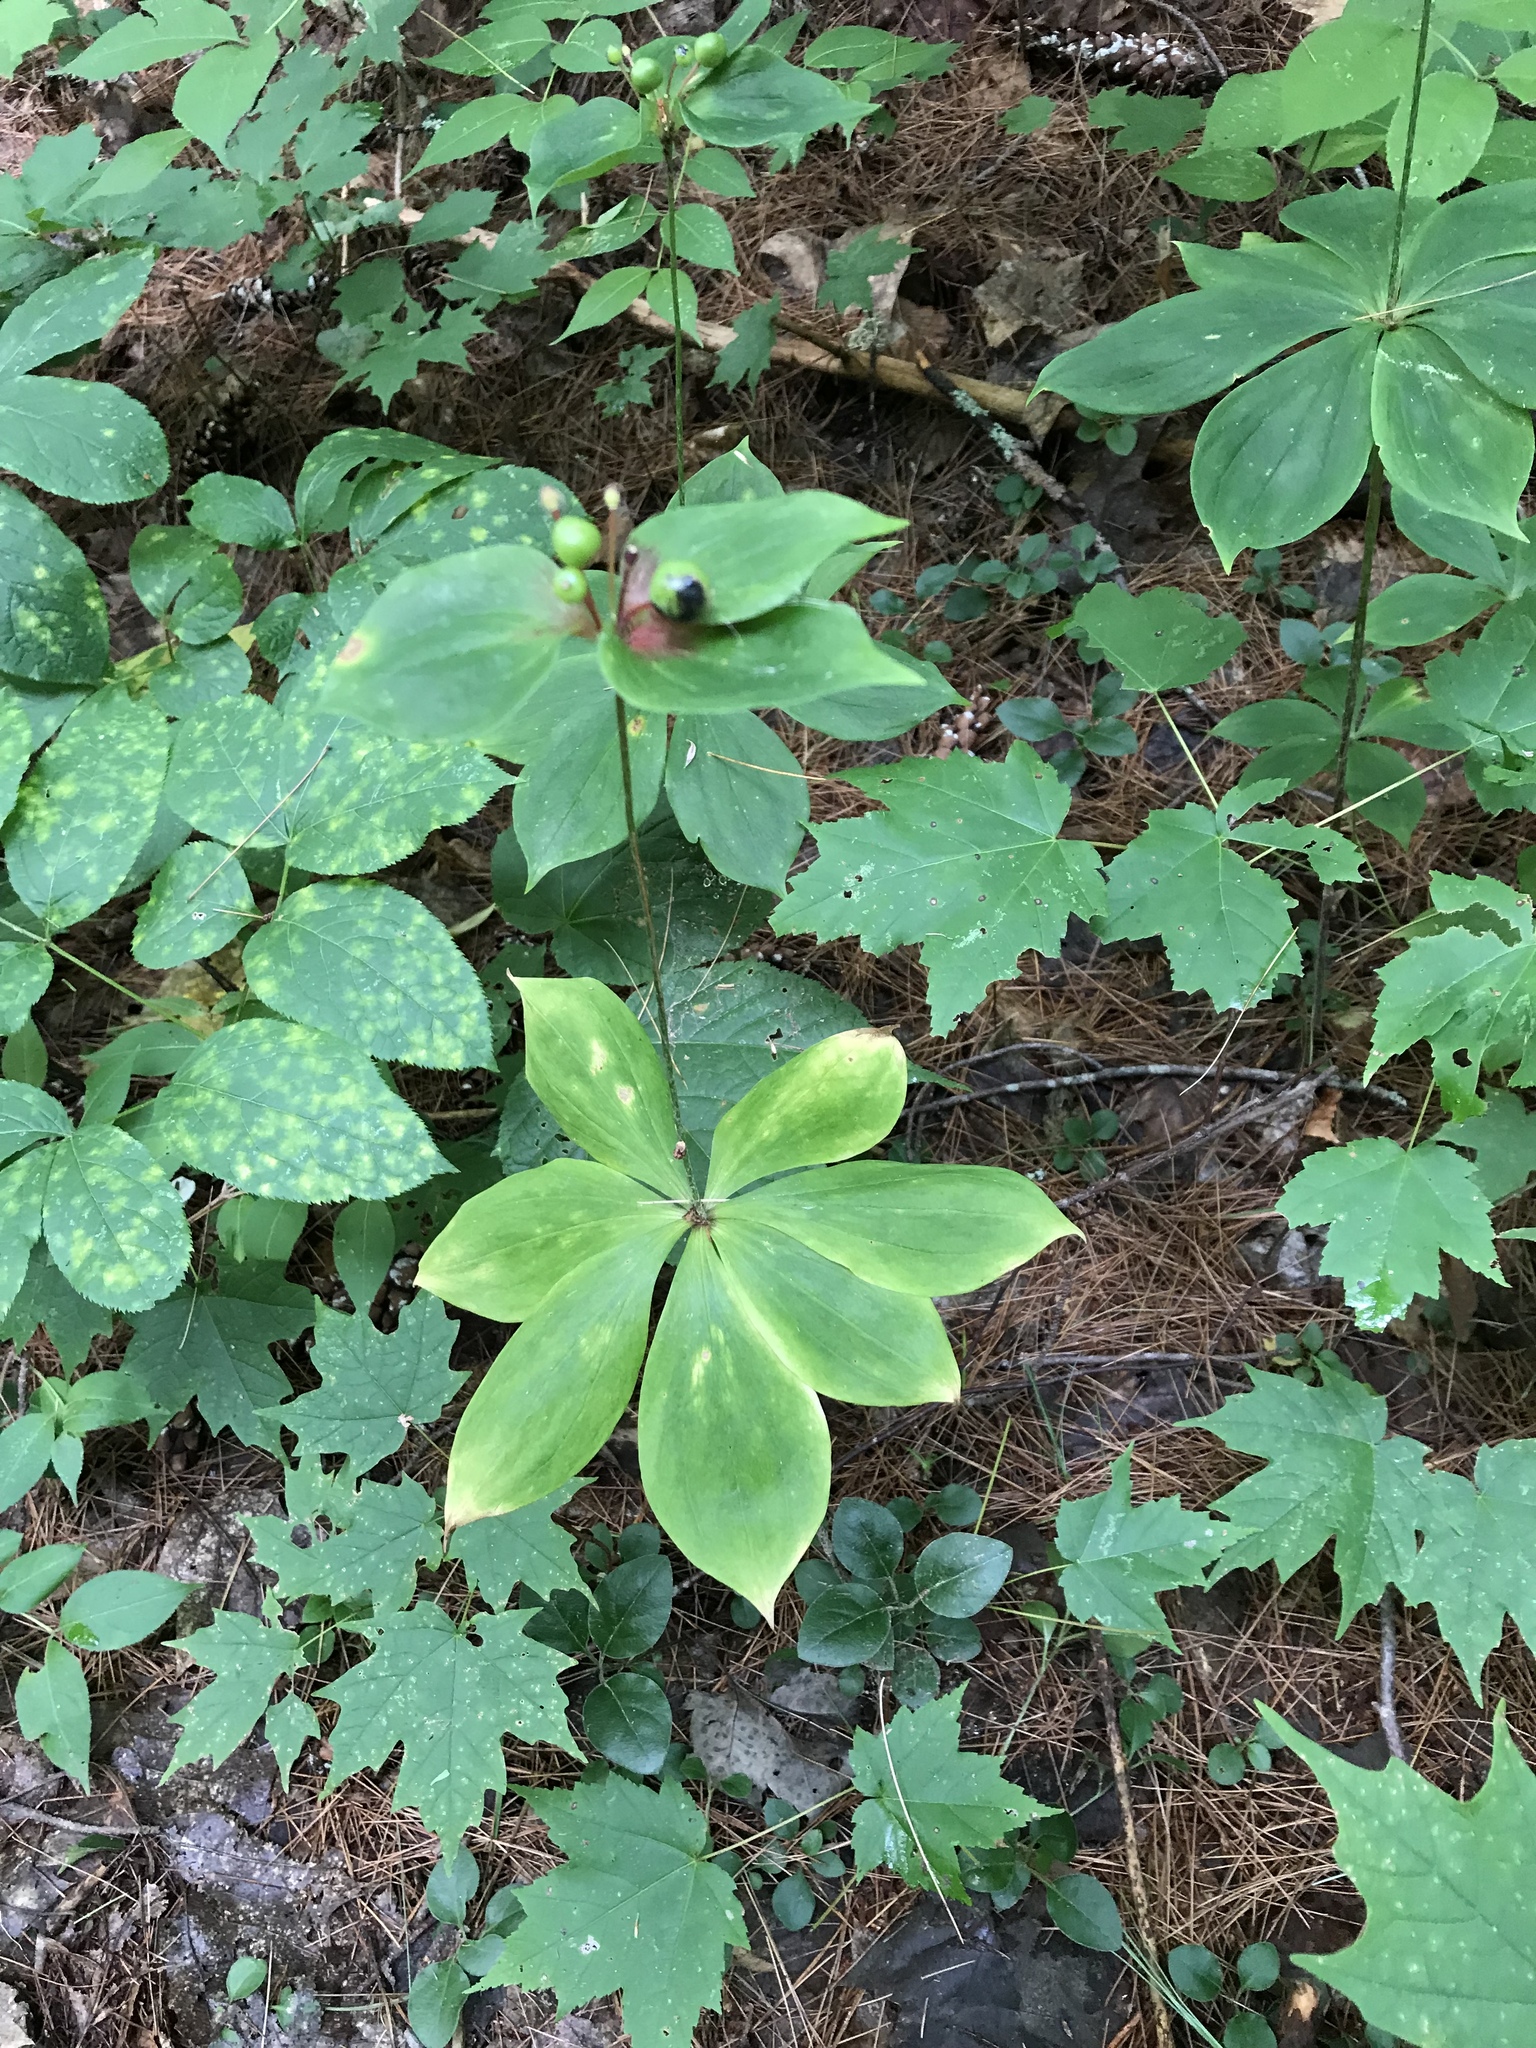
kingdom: Plantae
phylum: Tracheophyta
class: Liliopsida
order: Liliales
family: Liliaceae
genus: Medeola
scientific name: Medeola virginiana
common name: Indian cucumber-root
